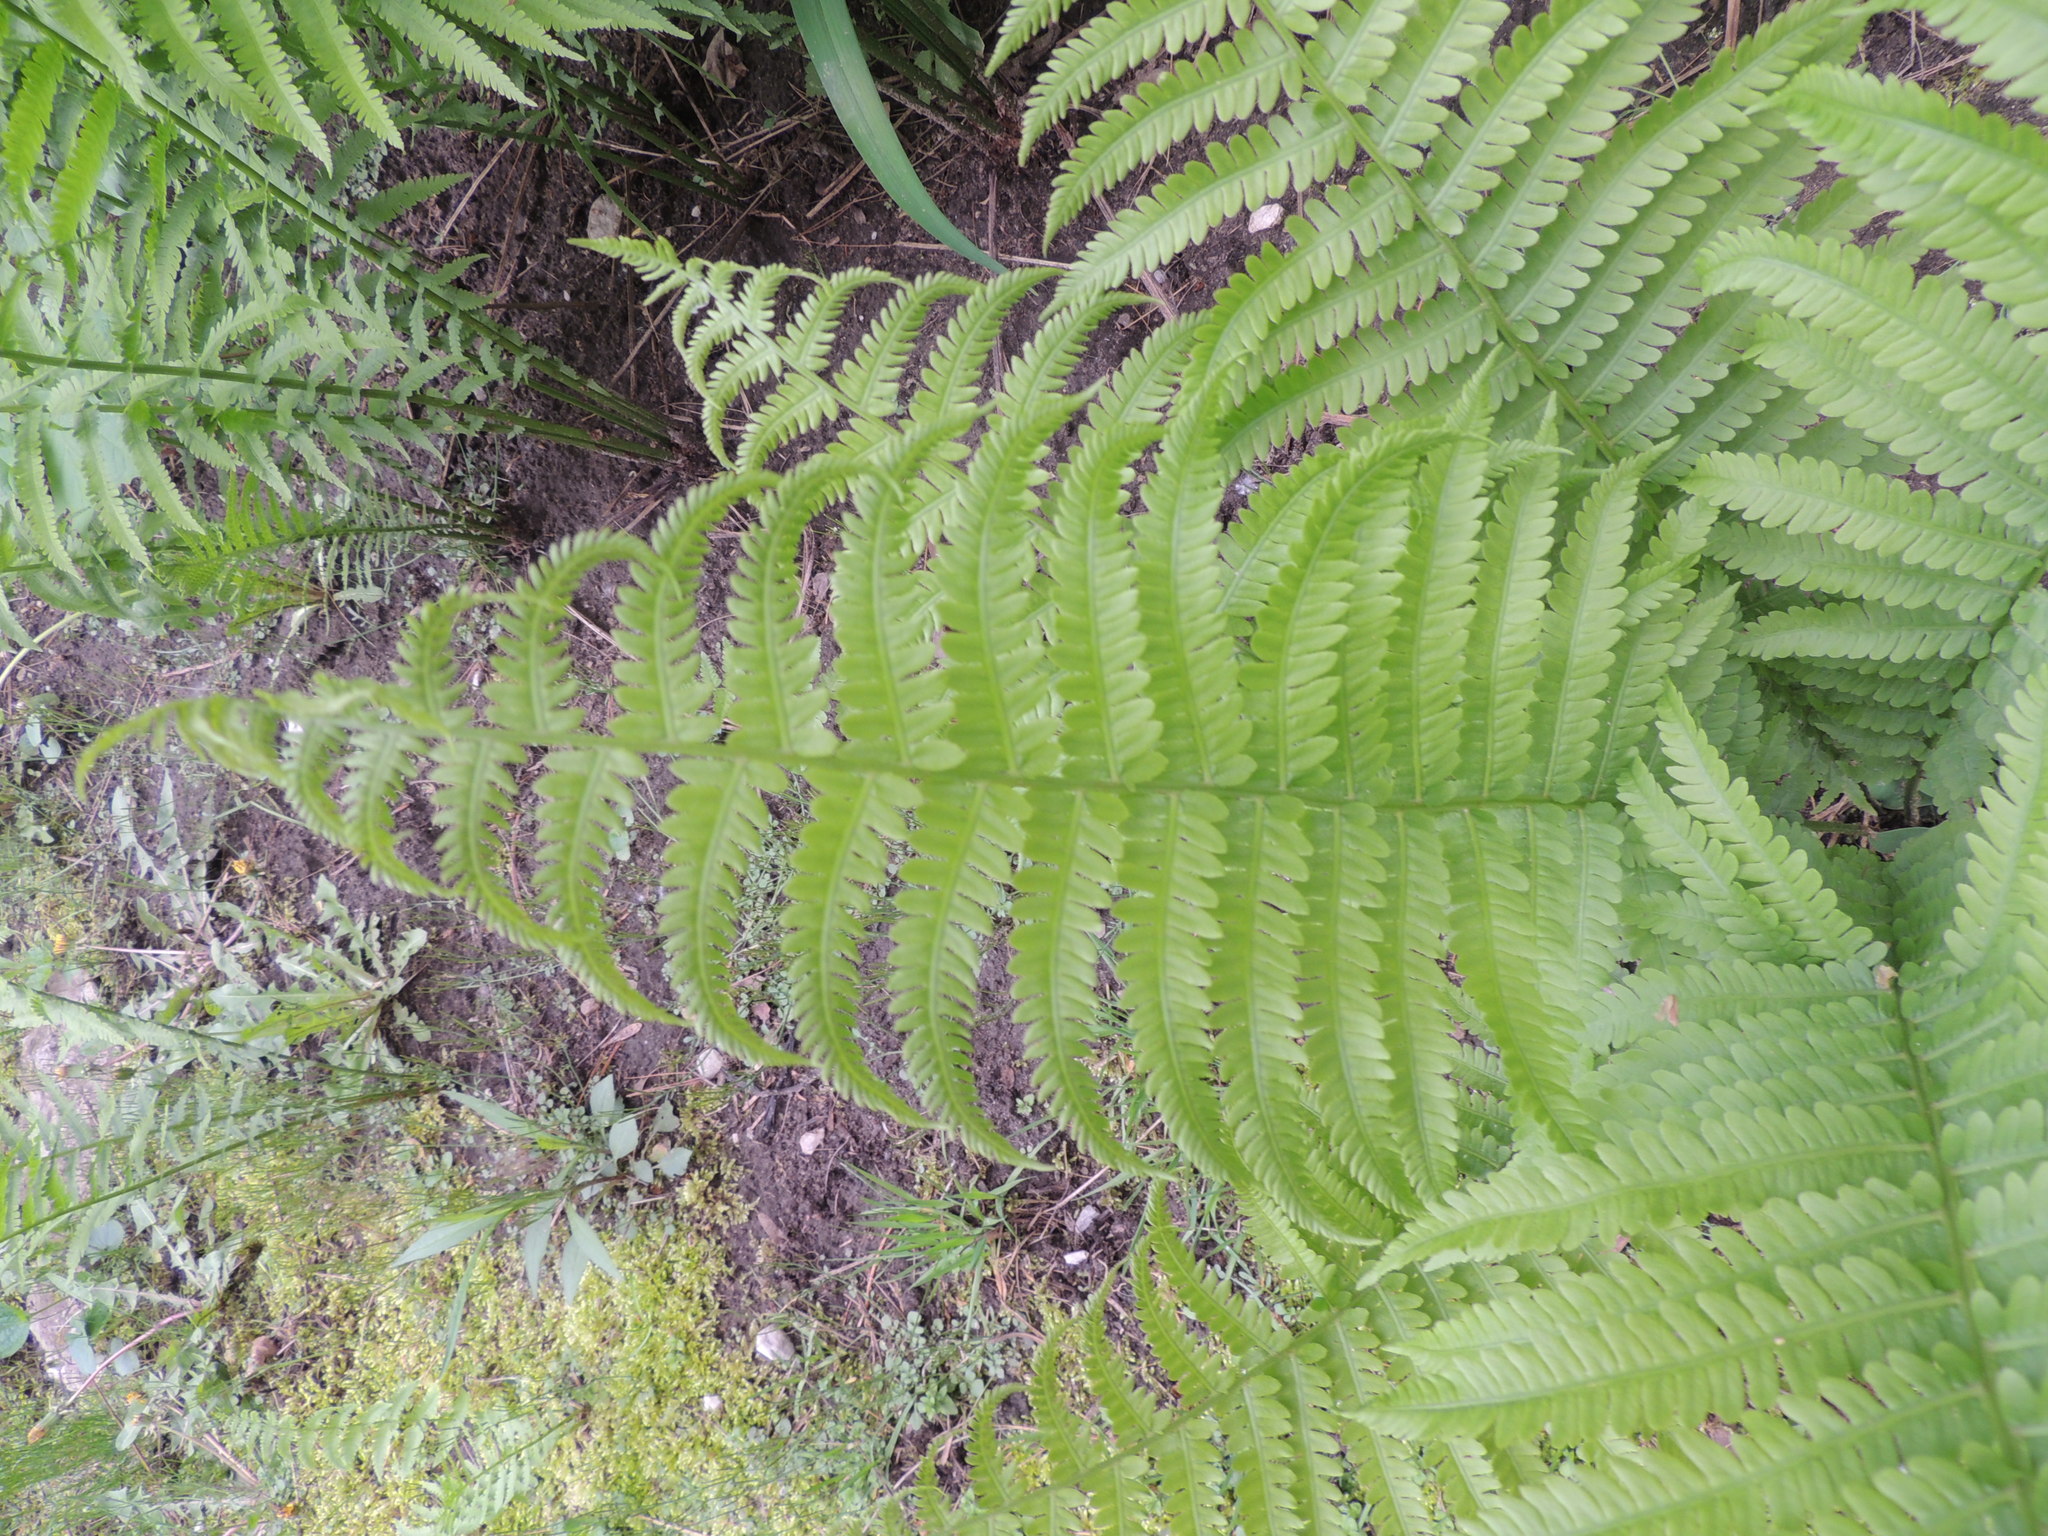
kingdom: Plantae
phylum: Tracheophyta
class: Polypodiopsida
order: Osmundales
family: Osmundaceae
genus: Osmundastrum
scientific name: Osmundastrum cinnamomeum
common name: Cinnamon fern
